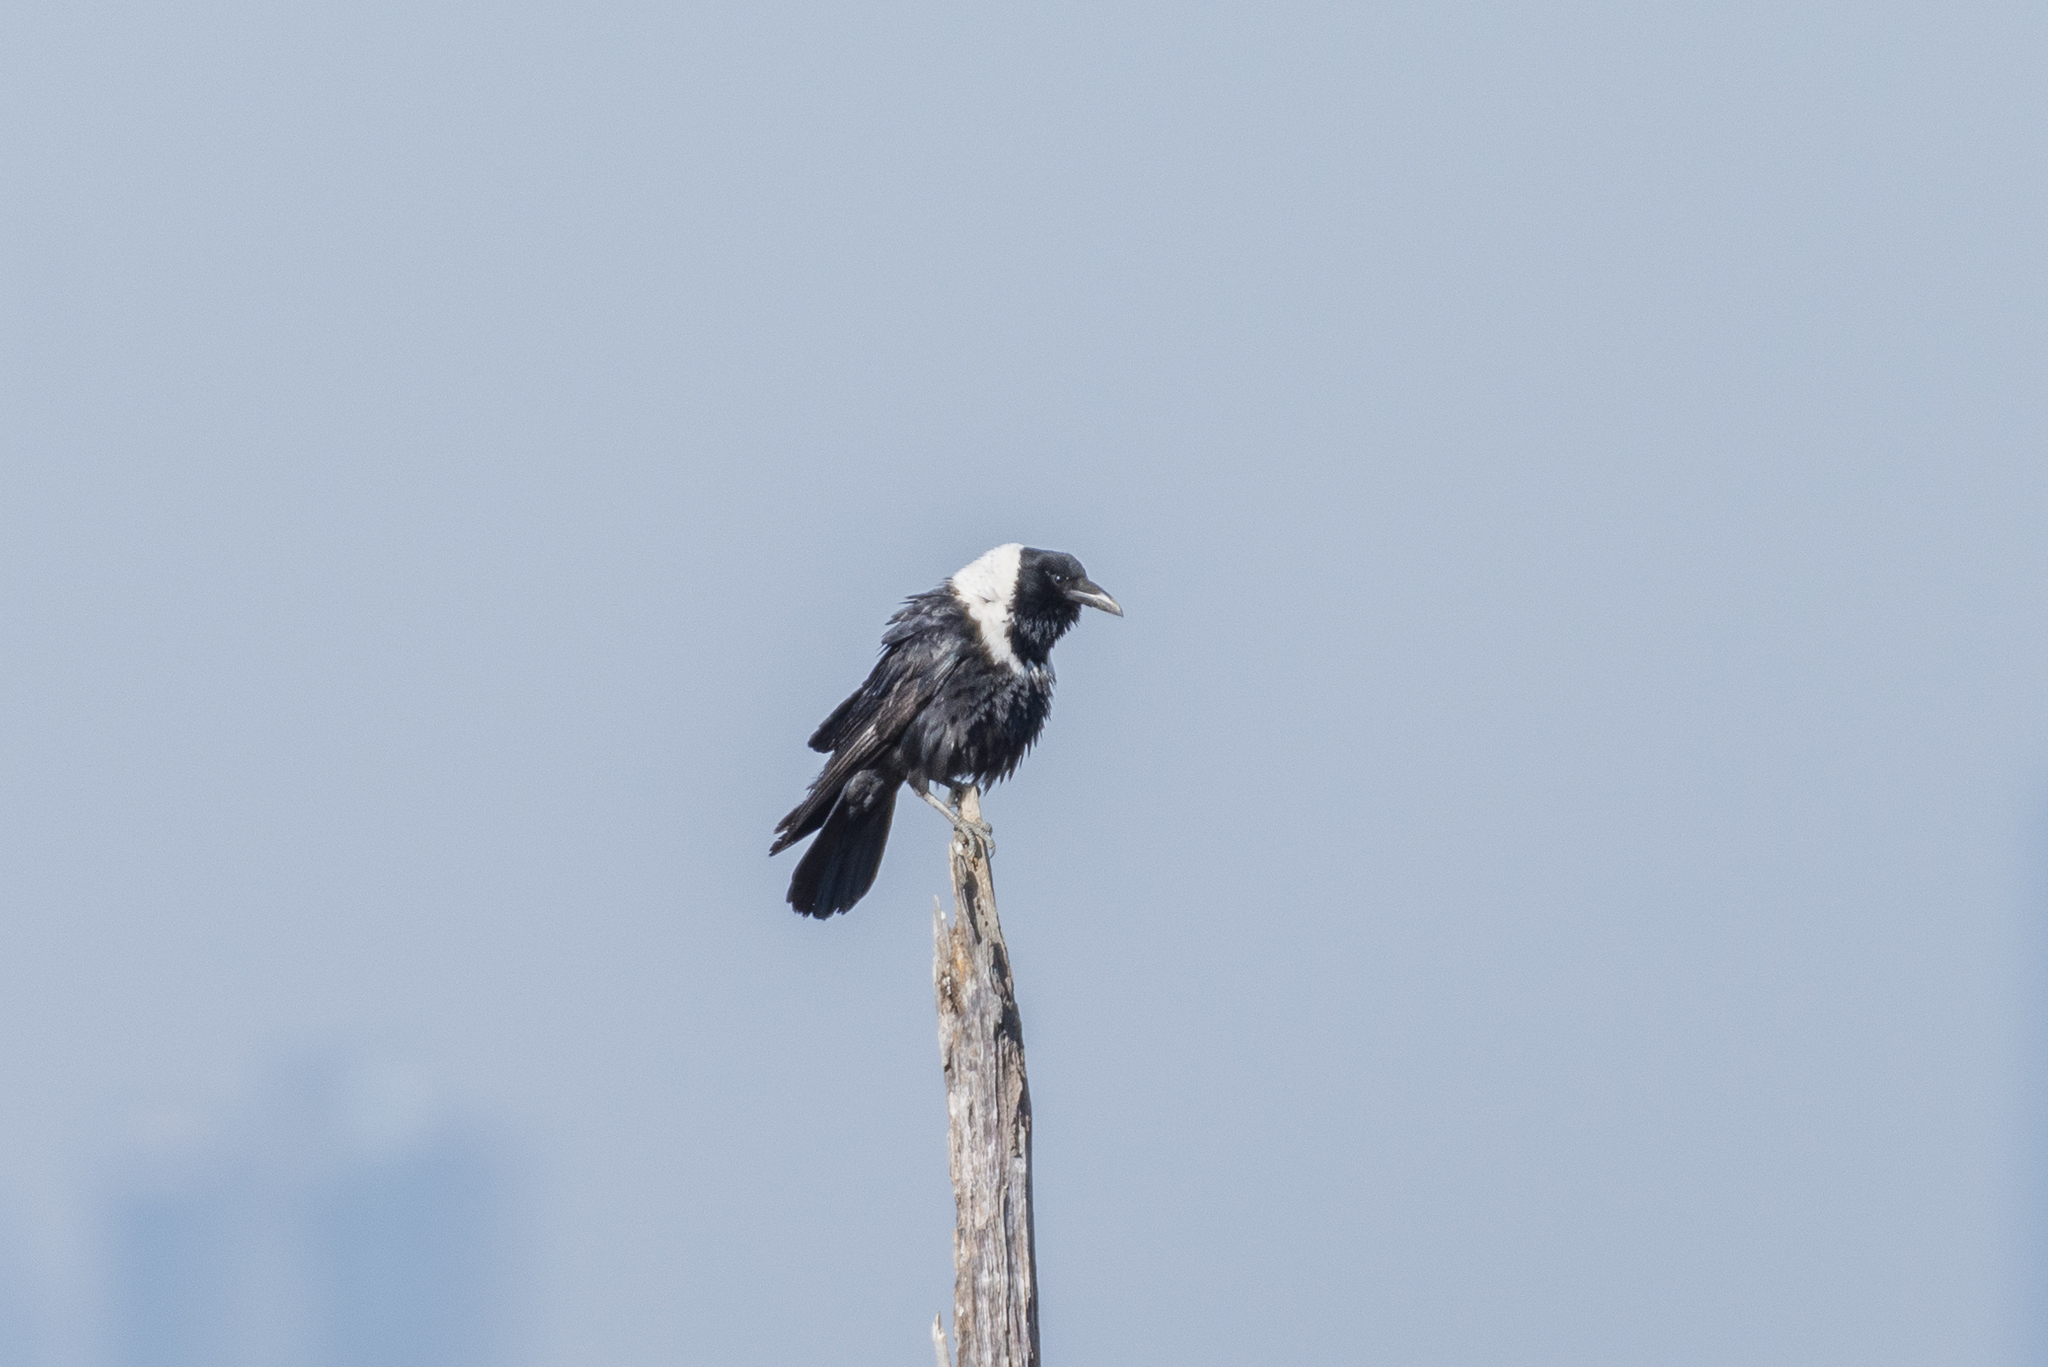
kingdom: Animalia
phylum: Chordata
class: Aves
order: Passeriformes
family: Corvidae
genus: Corvus
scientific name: Corvus pectoralis
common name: Collared crow
